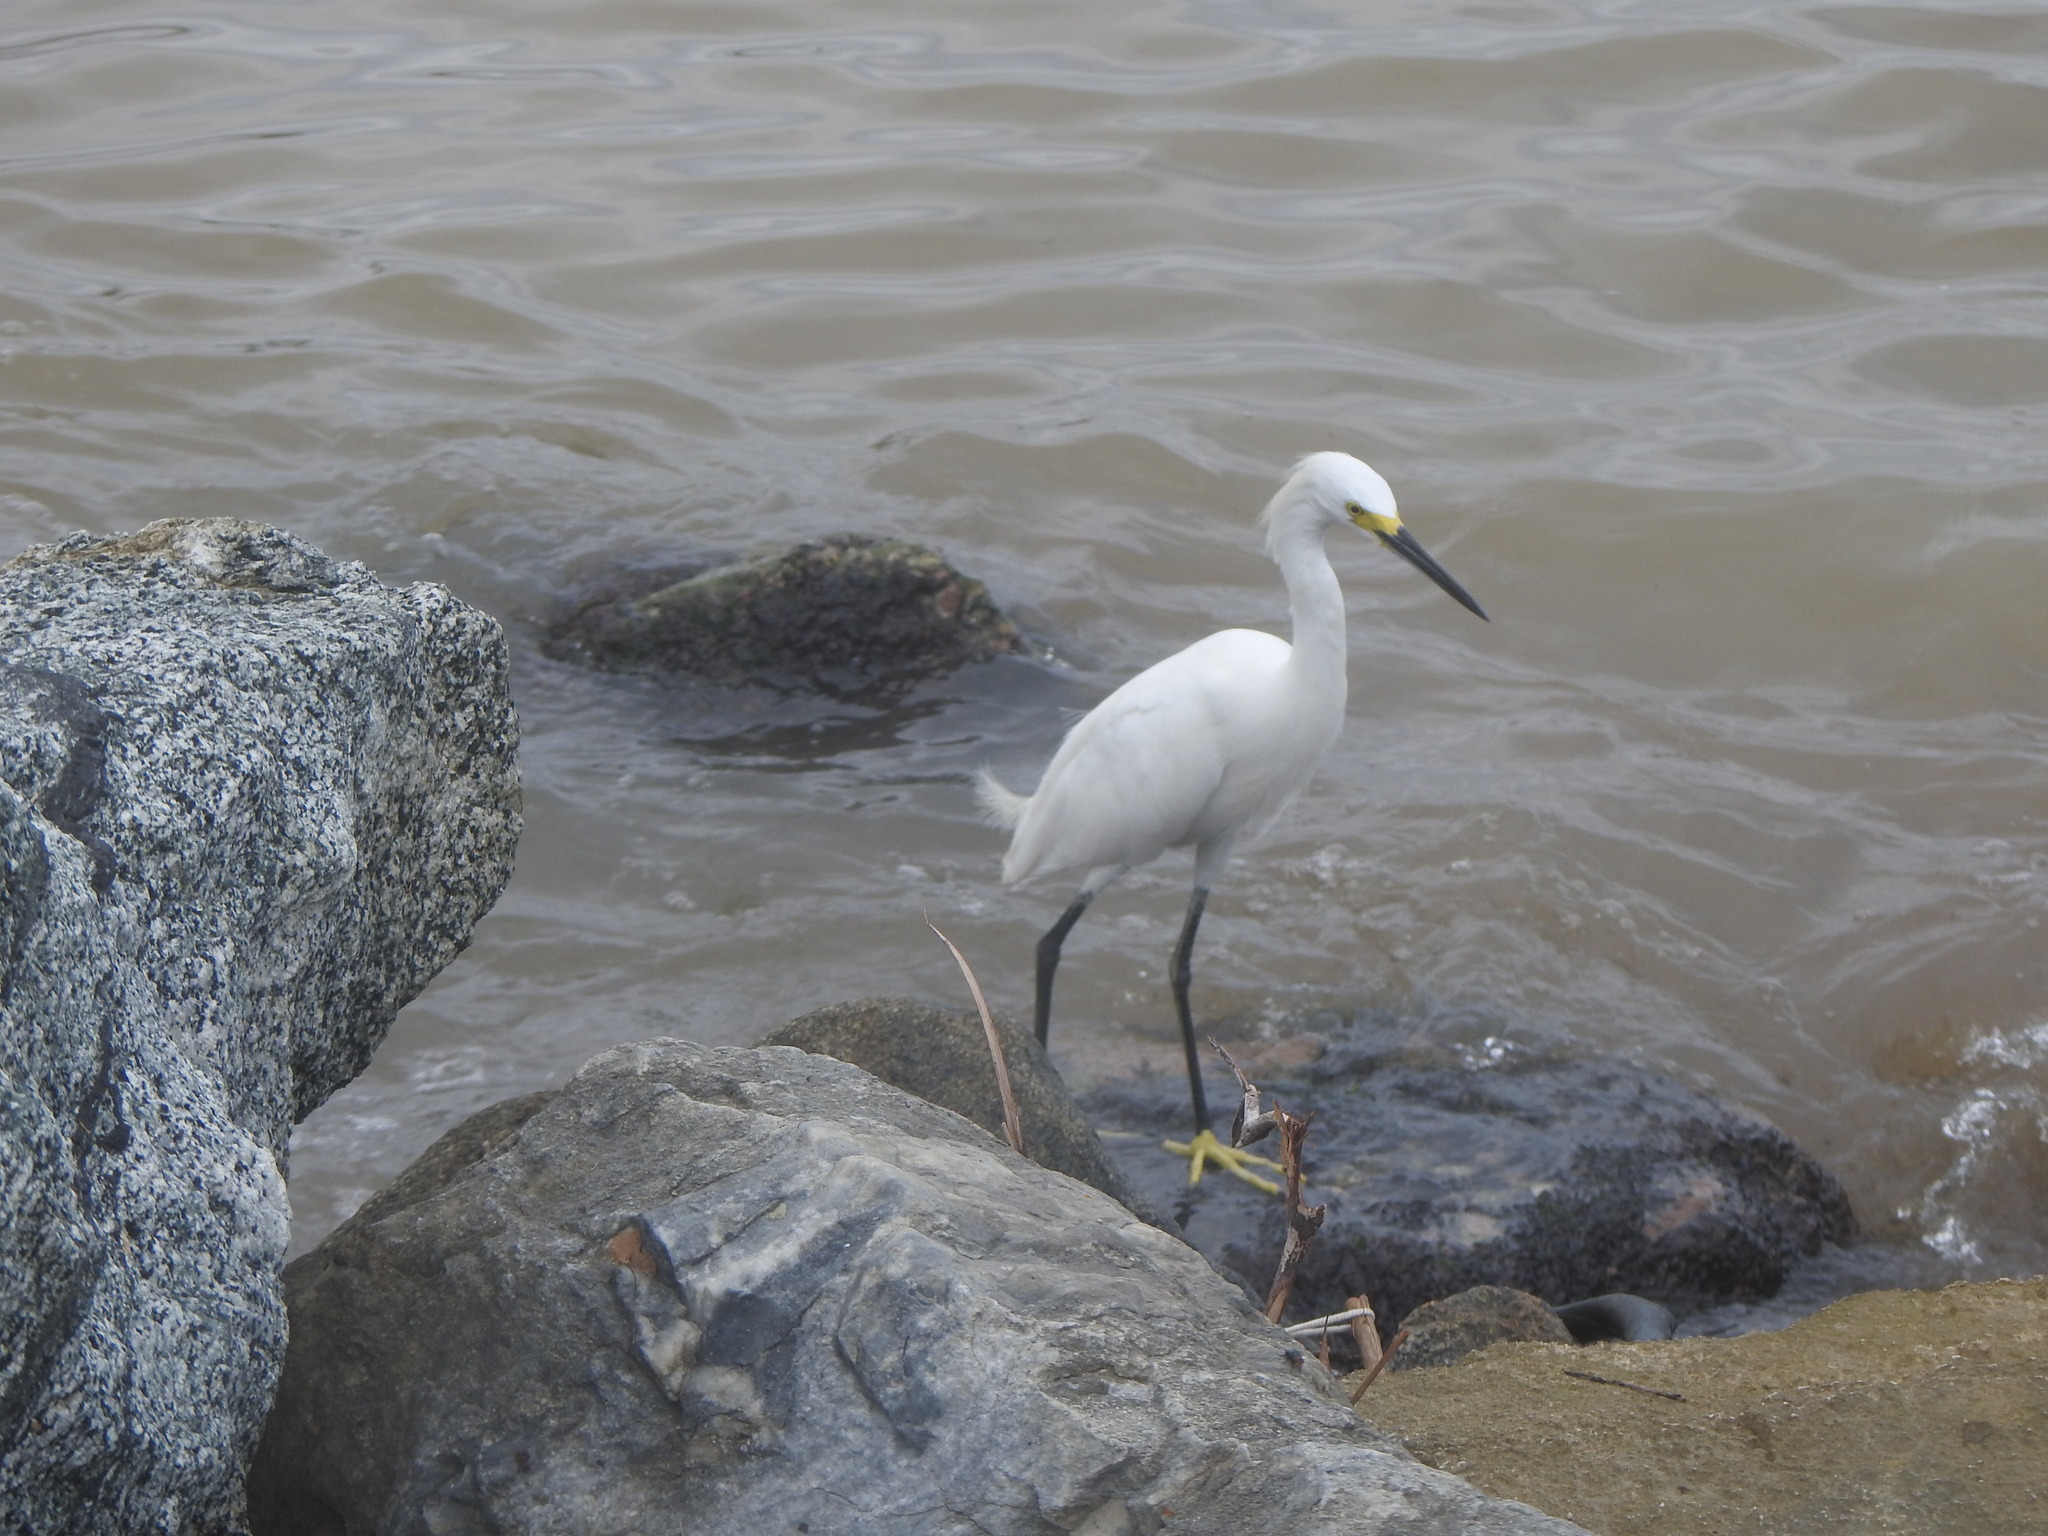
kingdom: Animalia
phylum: Chordata
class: Aves
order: Pelecaniformes
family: Ardeidae
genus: Egretta
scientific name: Egretta thula
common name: Snowy egret
